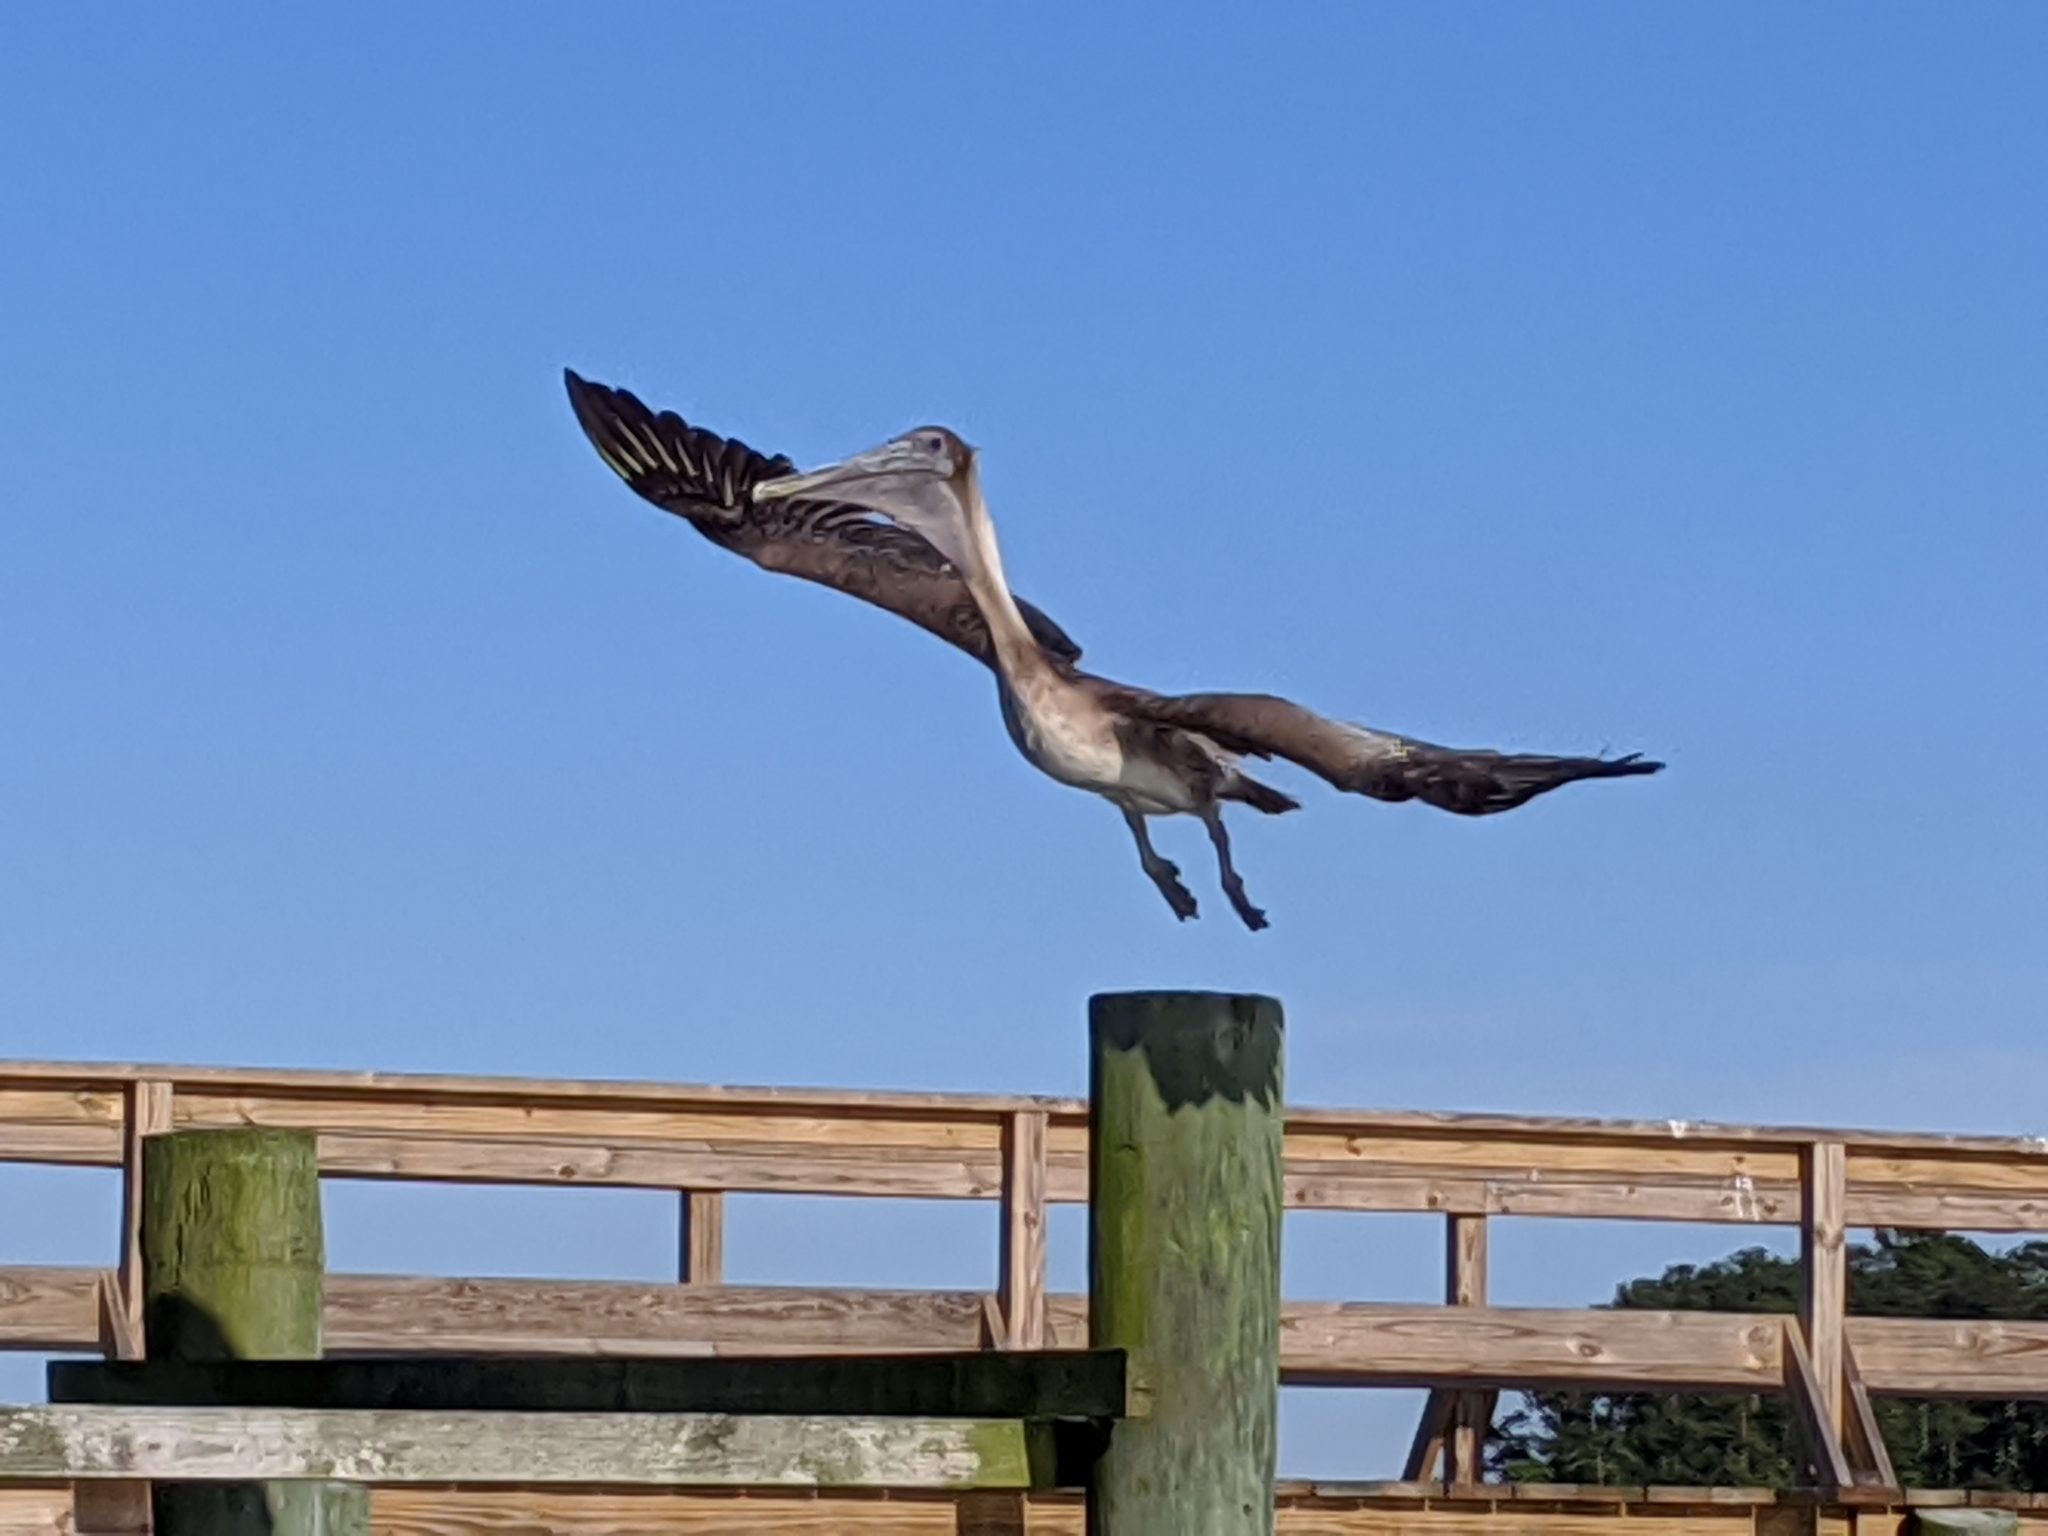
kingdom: Animalia
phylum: Chordata
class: Aves
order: Pelecaniformes
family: Pelecanidae
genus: Pelecanus
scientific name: Pelecanus occidentalis
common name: Brown pelican
